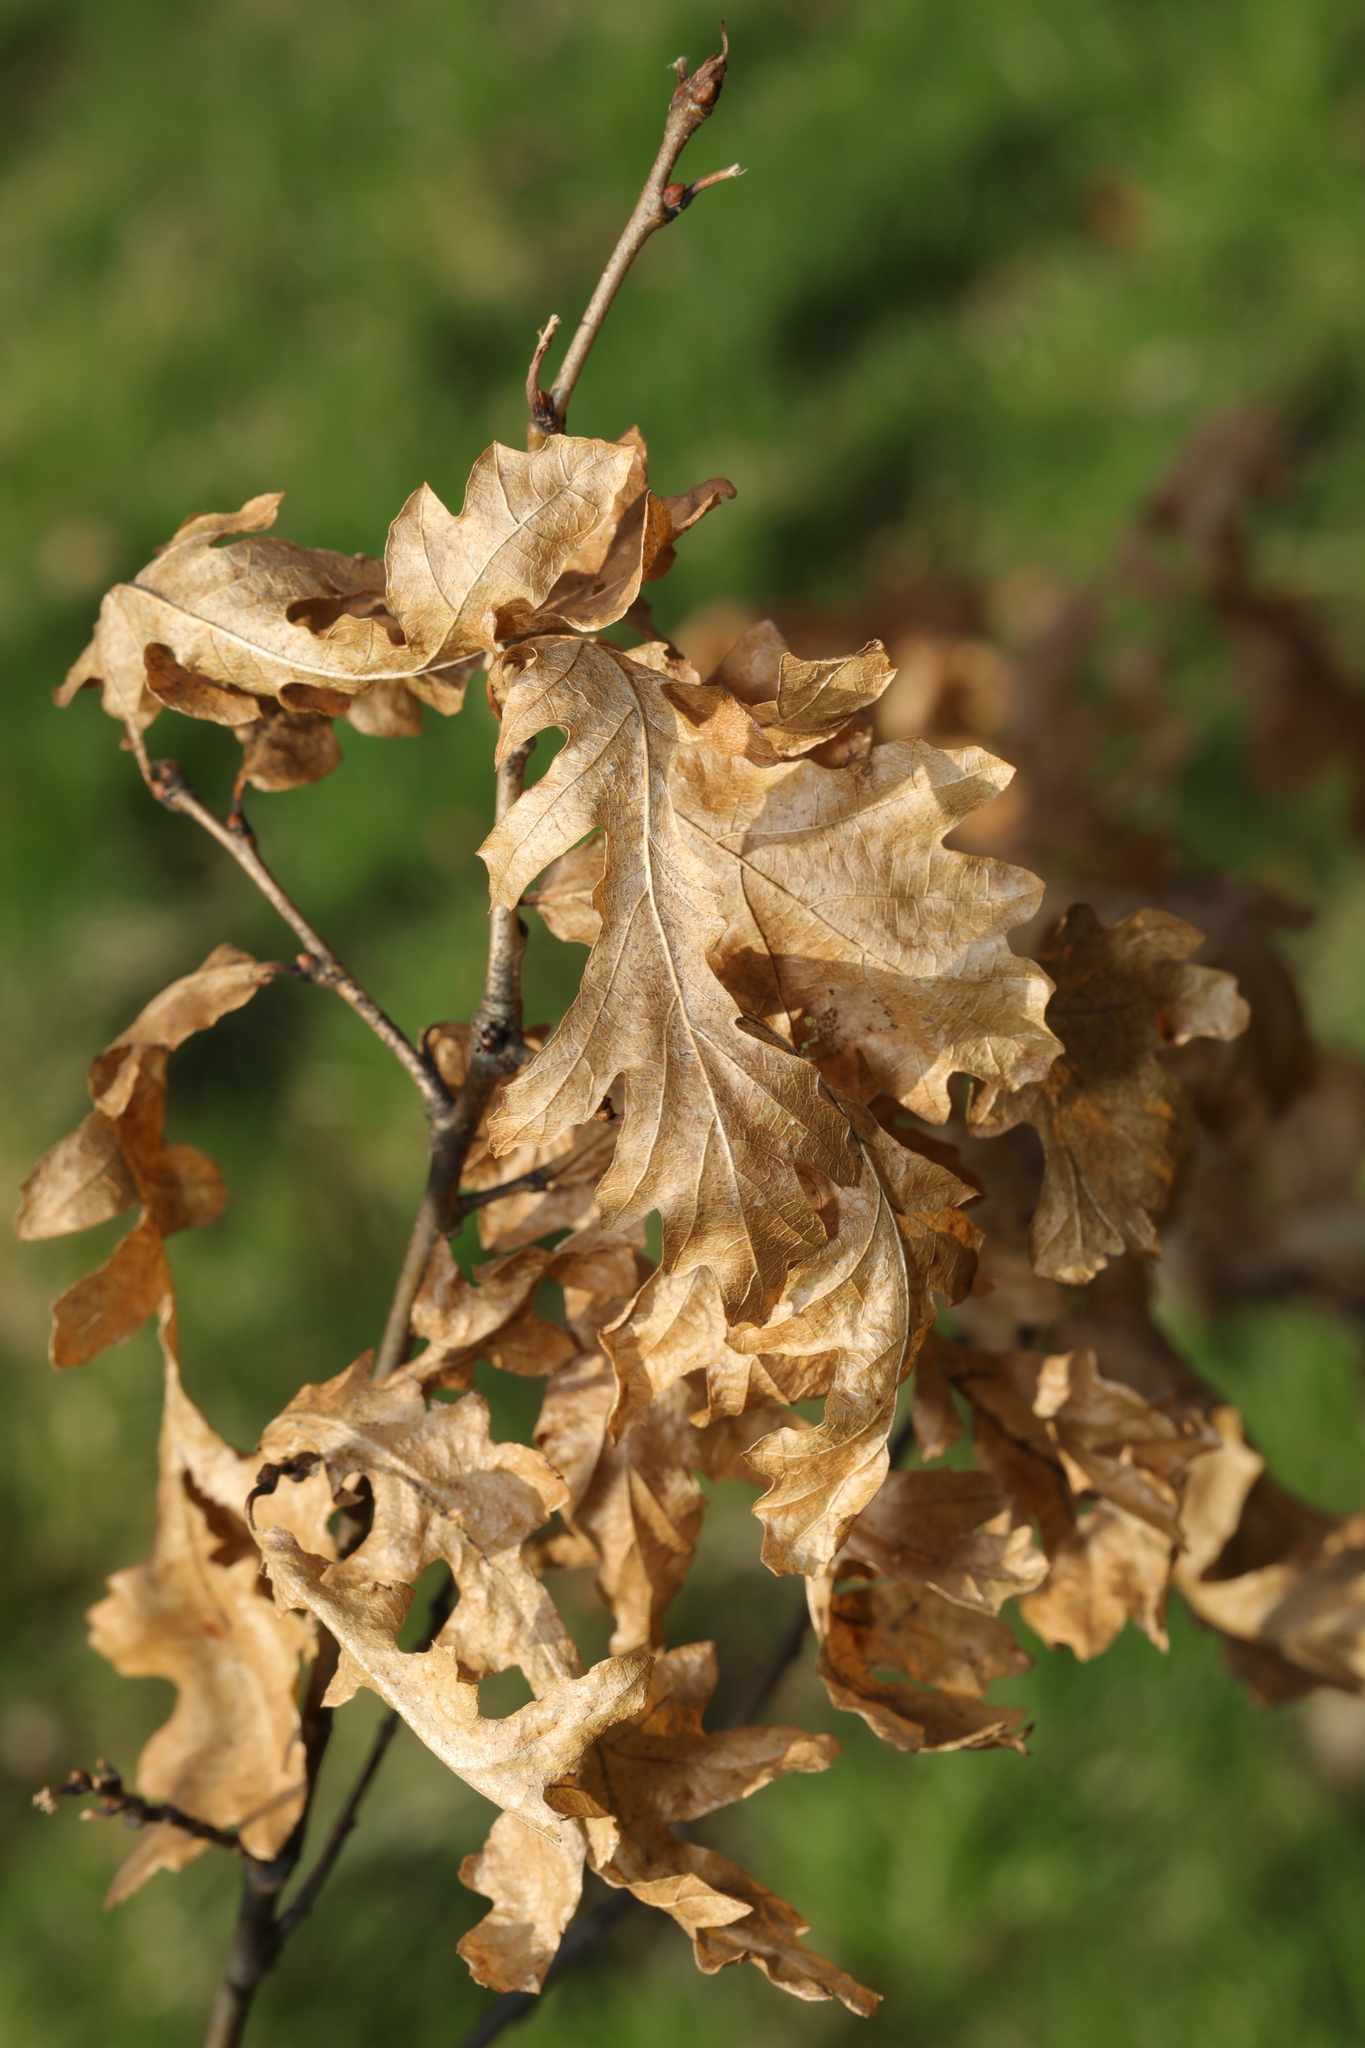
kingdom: Plantae
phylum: Tracheophyta
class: Magnoliopsida
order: Fagales
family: Fagaceae
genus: Quercus
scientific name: Quercus cerris
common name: Turkey oak
